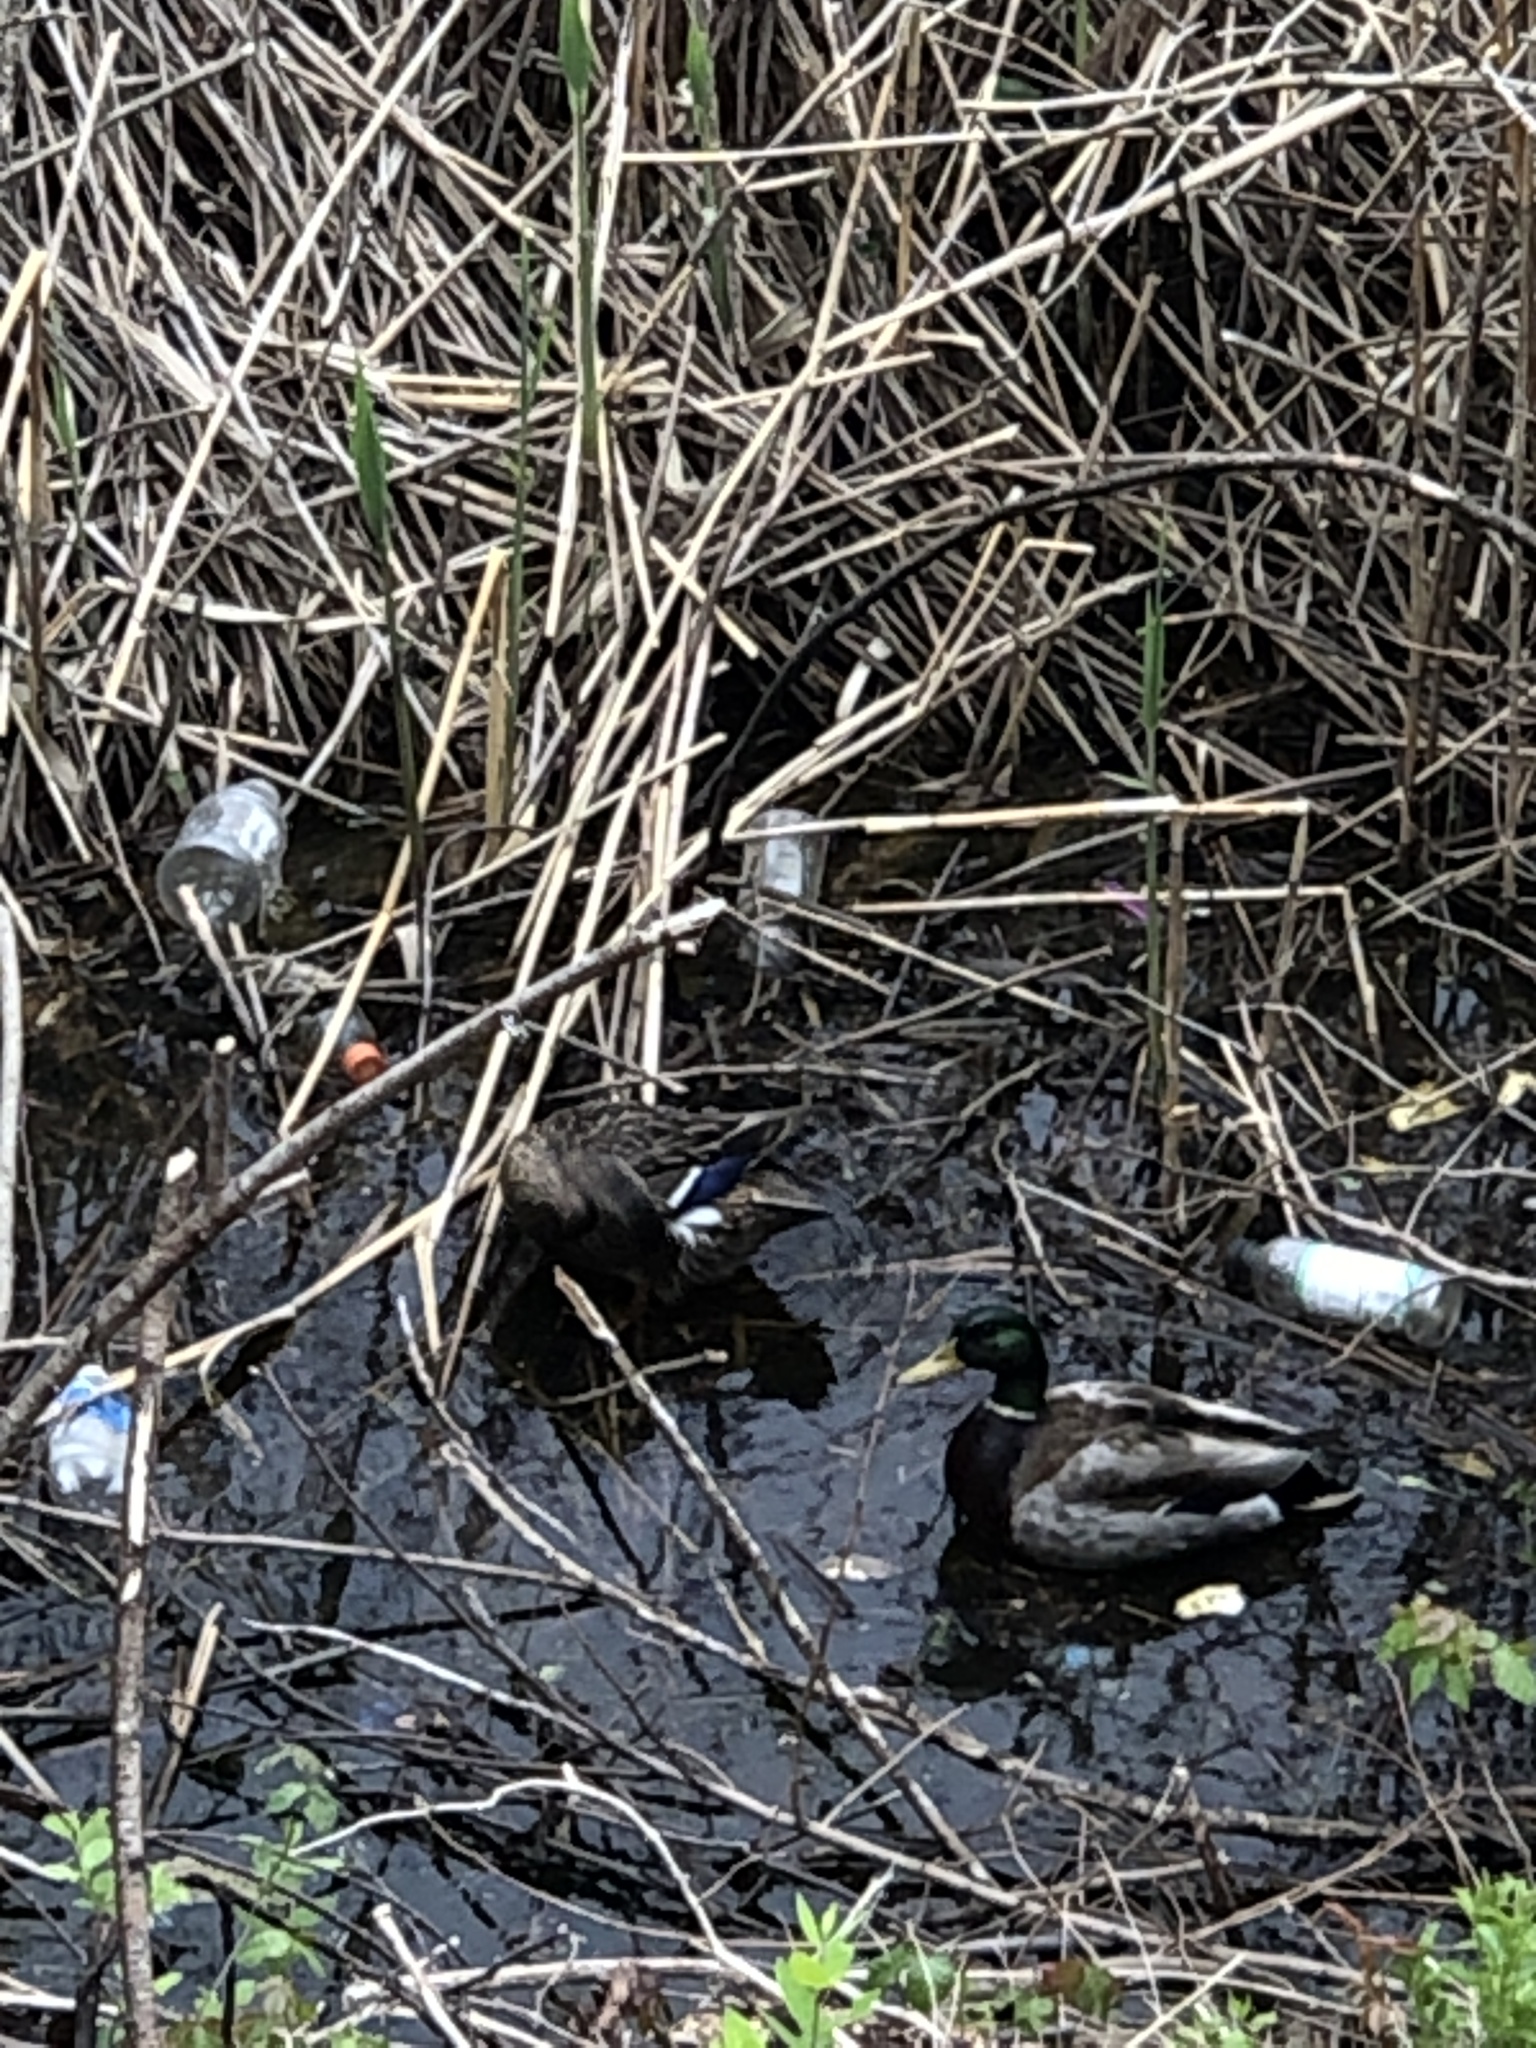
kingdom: Animalia
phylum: Chordata
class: Aves
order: Anseriformes
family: Anatidae
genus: Anas
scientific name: Anas platyrhynchos
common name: Mallard
